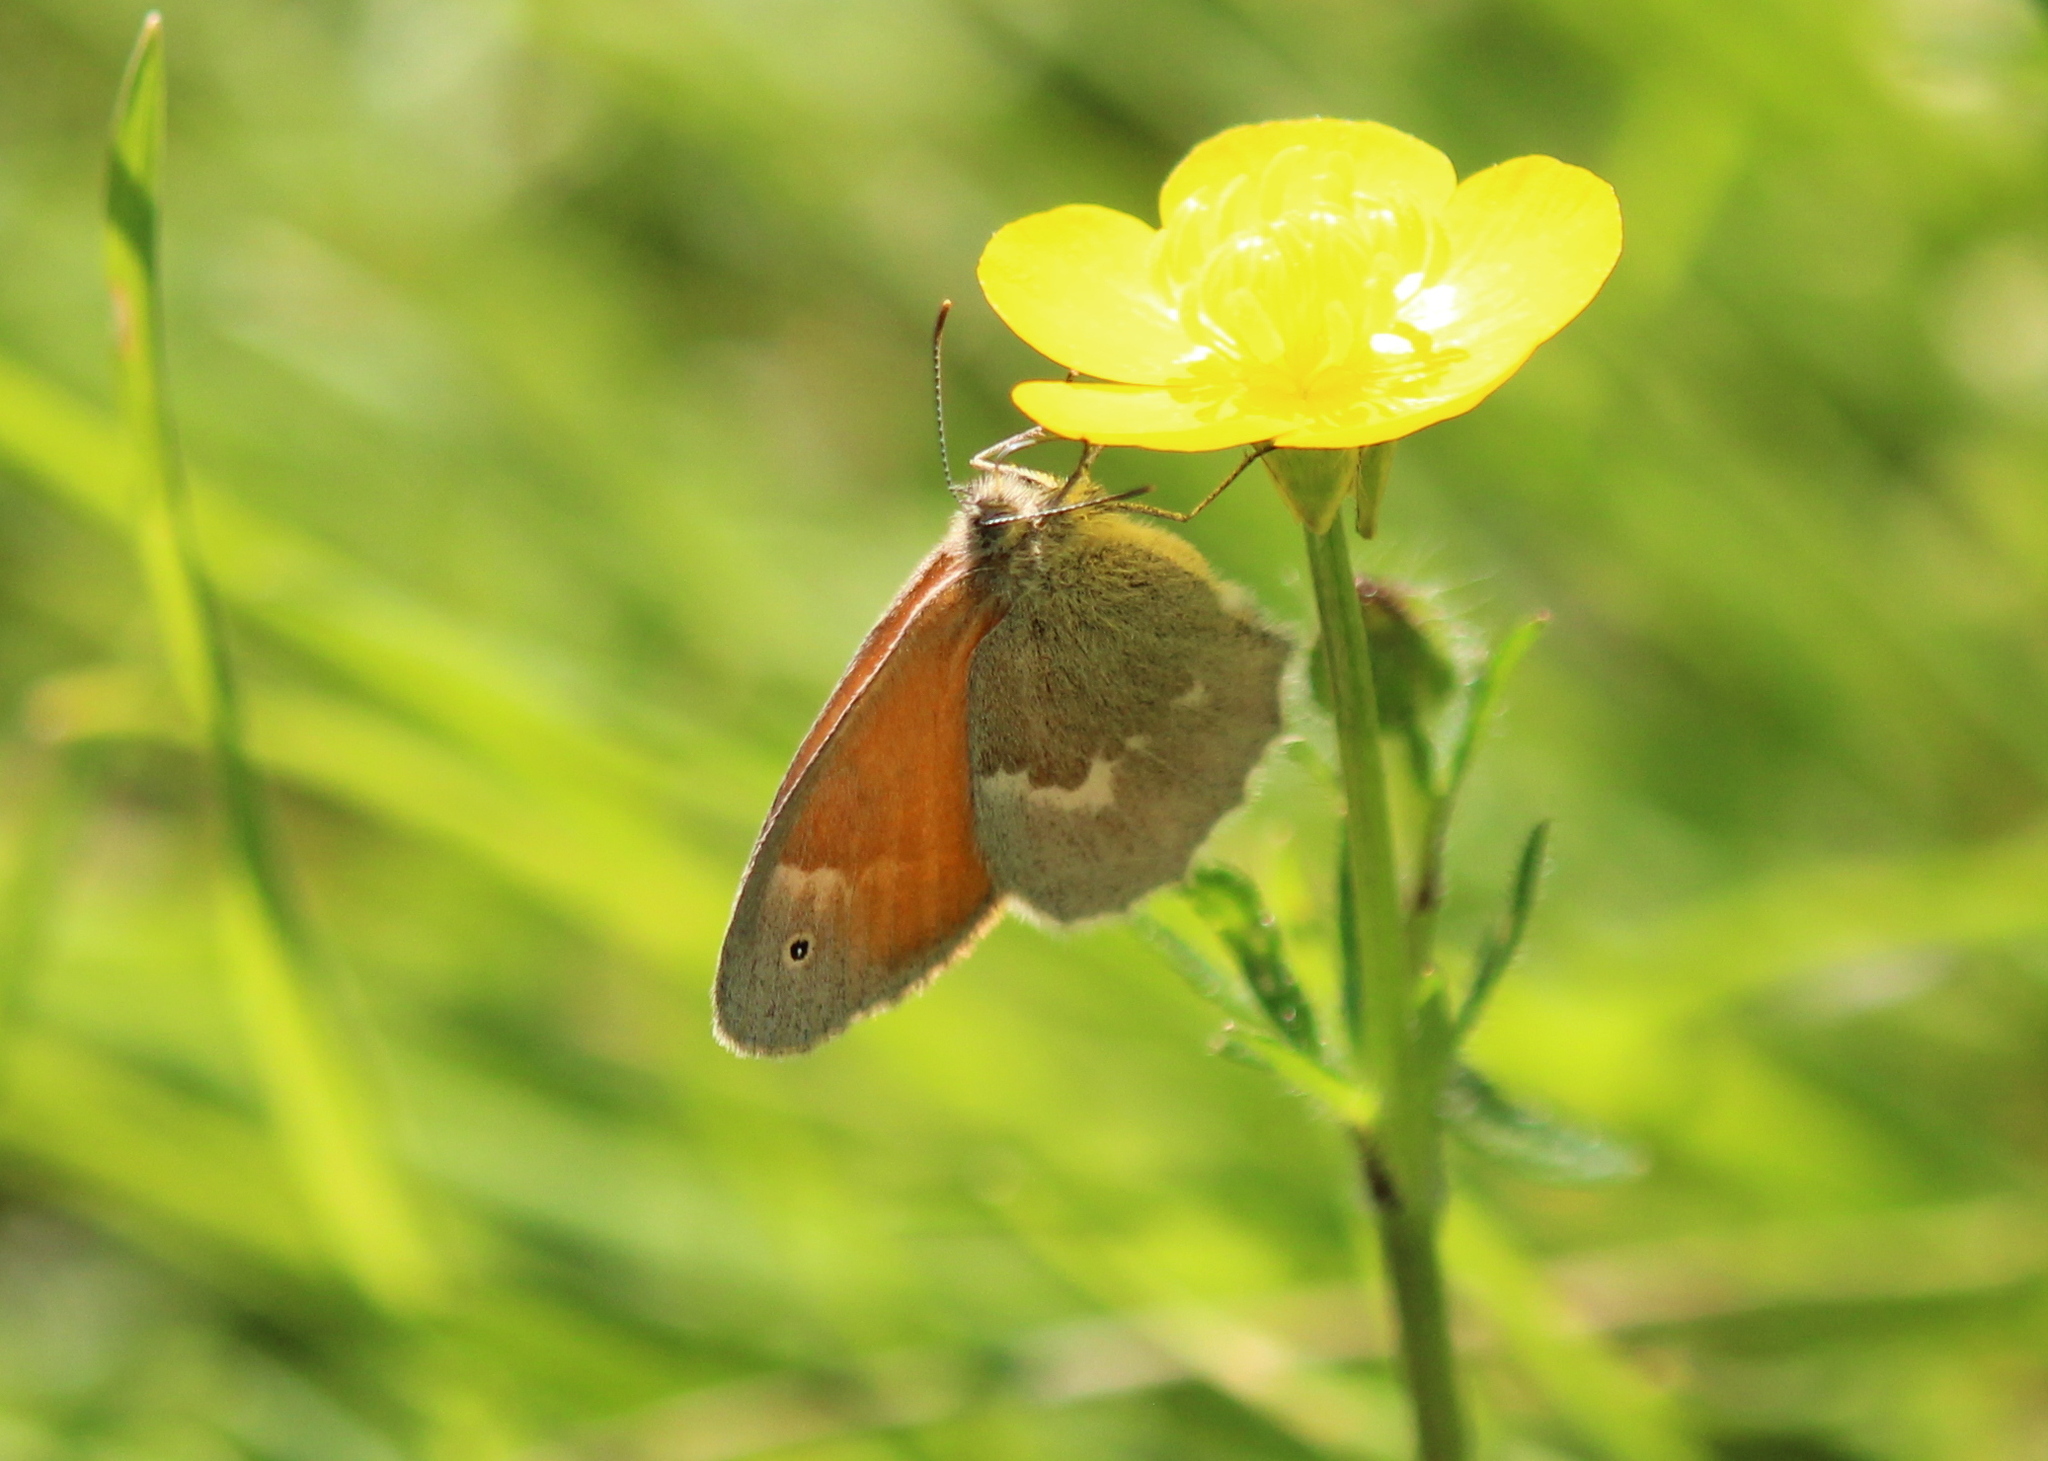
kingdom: Animalia
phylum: Arthropoda
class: Insecta
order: Lepidoptera
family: Nymphalidae
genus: Coenonympha
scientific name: Coenonympha california
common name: Common ringlet
